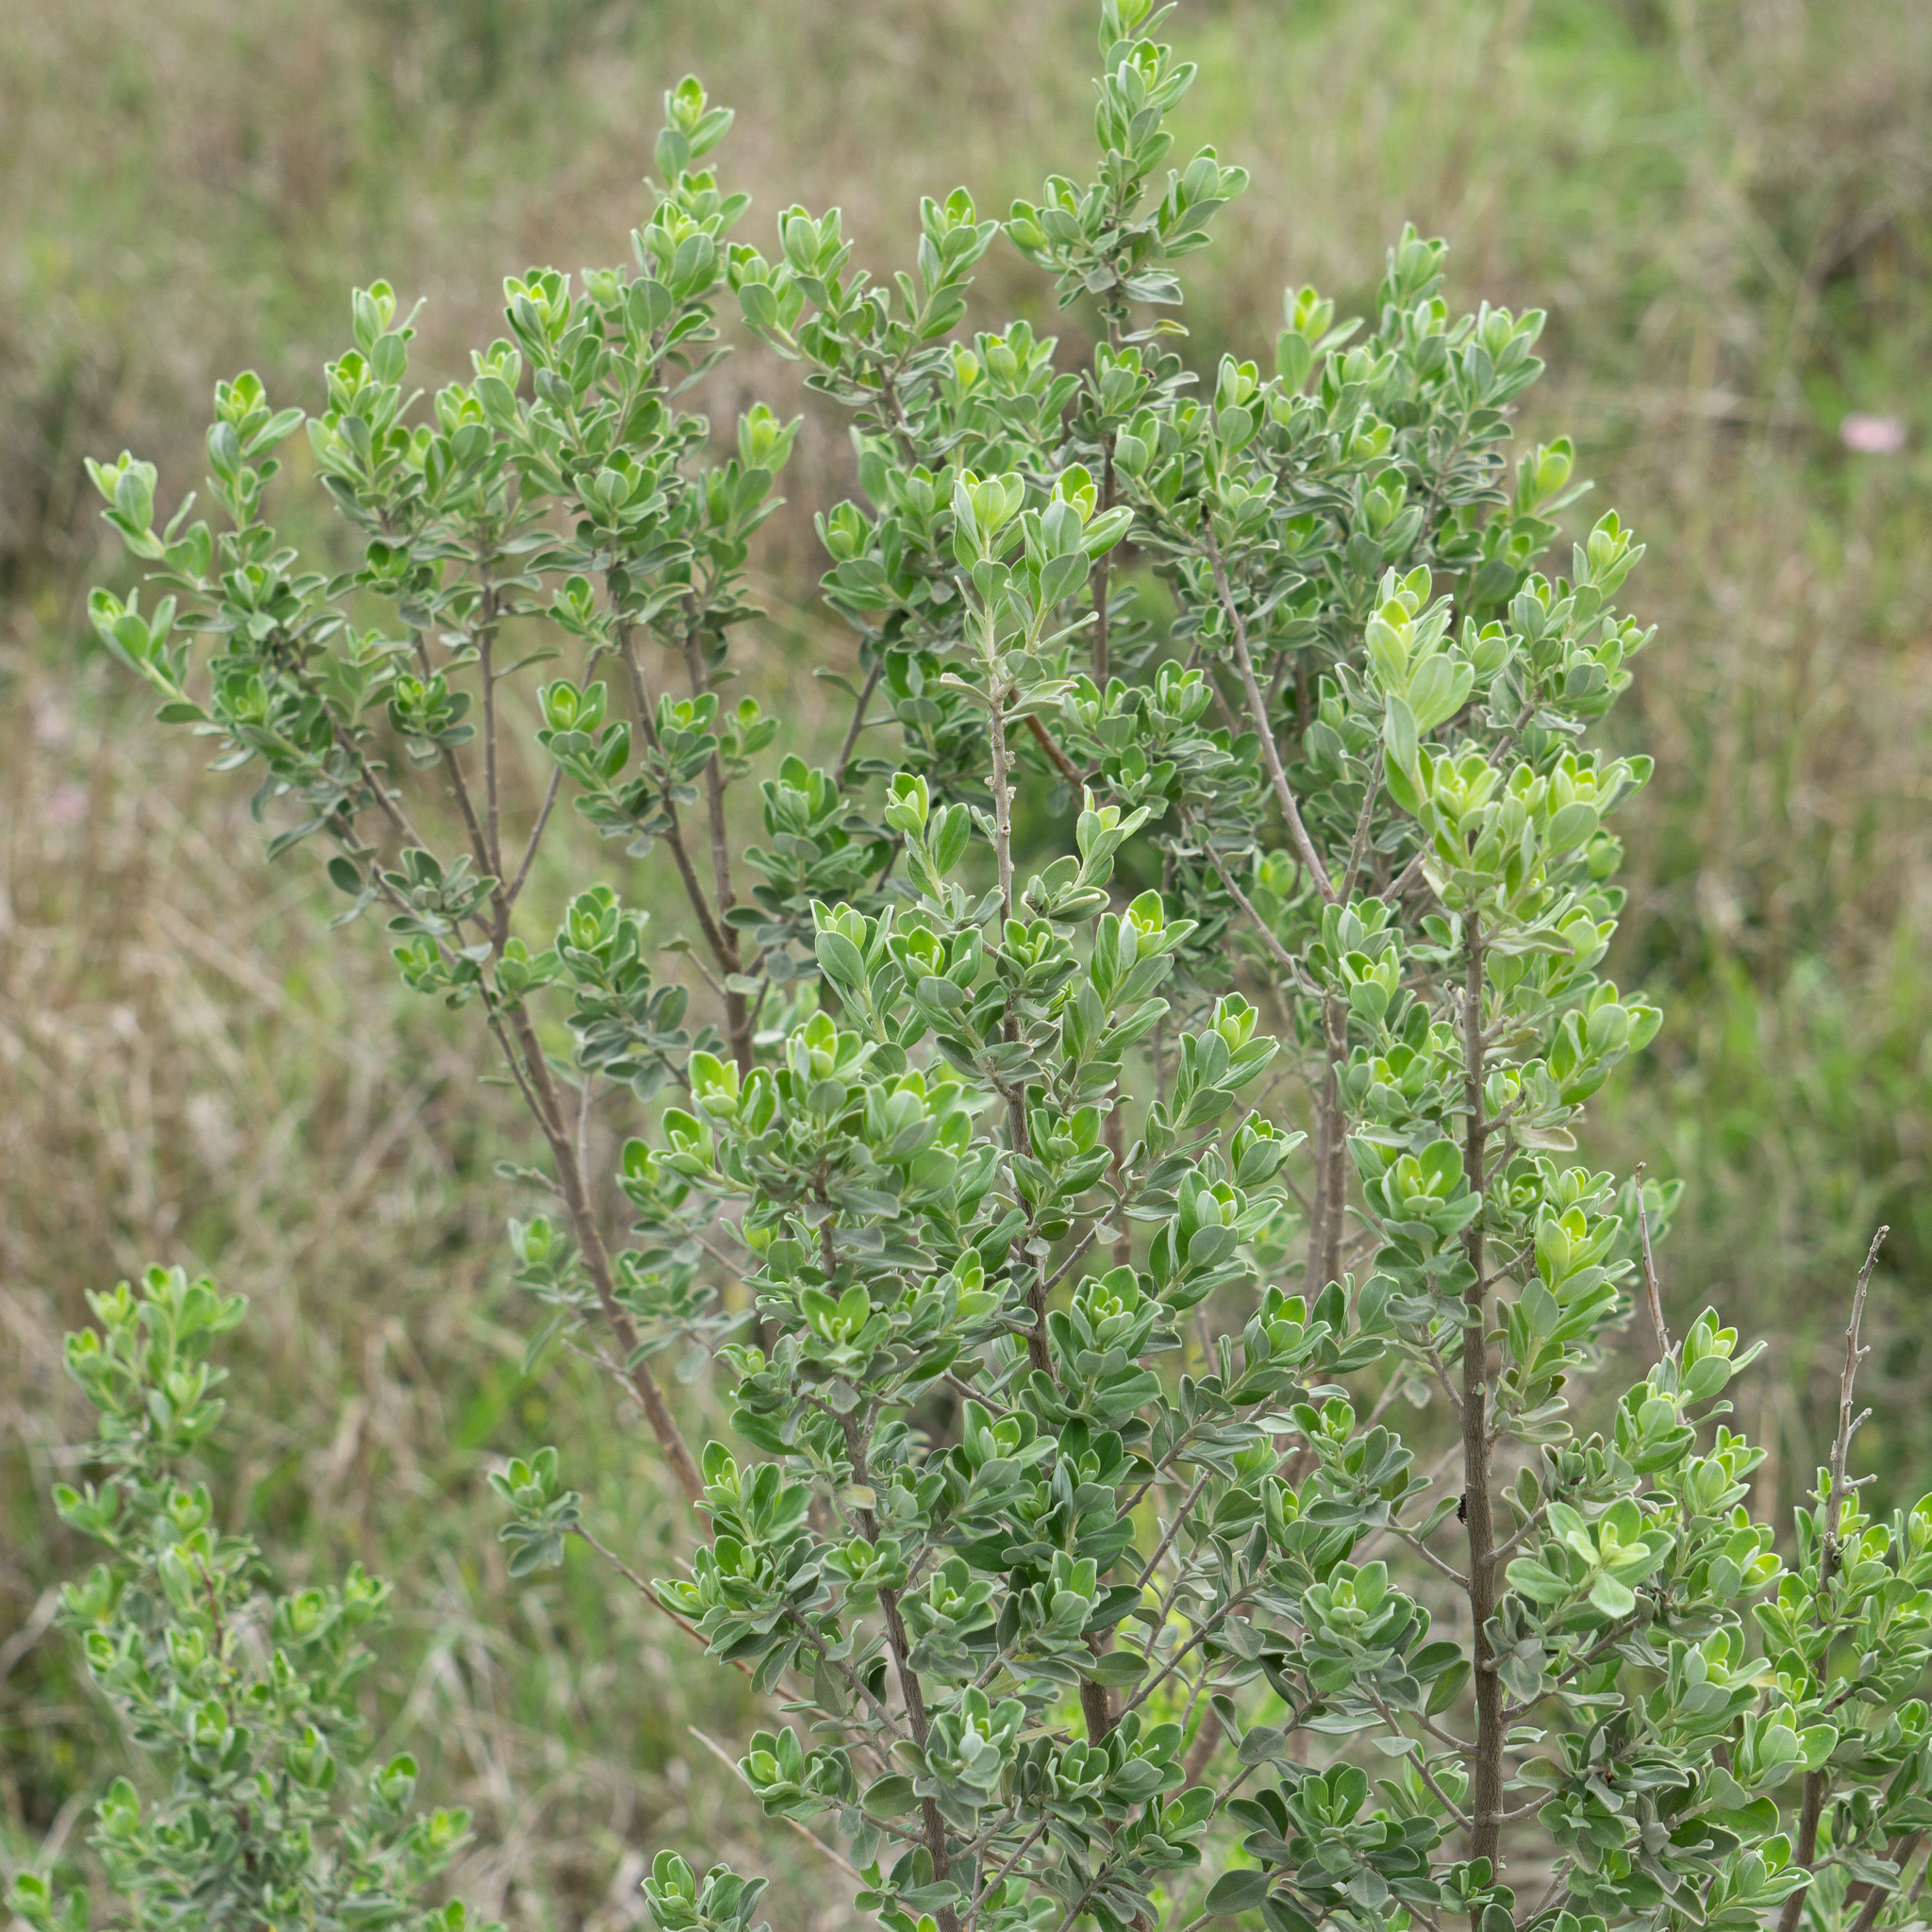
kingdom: Plantae
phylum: Tracheophyta
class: Magnoliopsida
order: Lamiales
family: Scrophulariaceae
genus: Leucophyllum
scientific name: Leucophyllum frutescens
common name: Texas silverleaf
